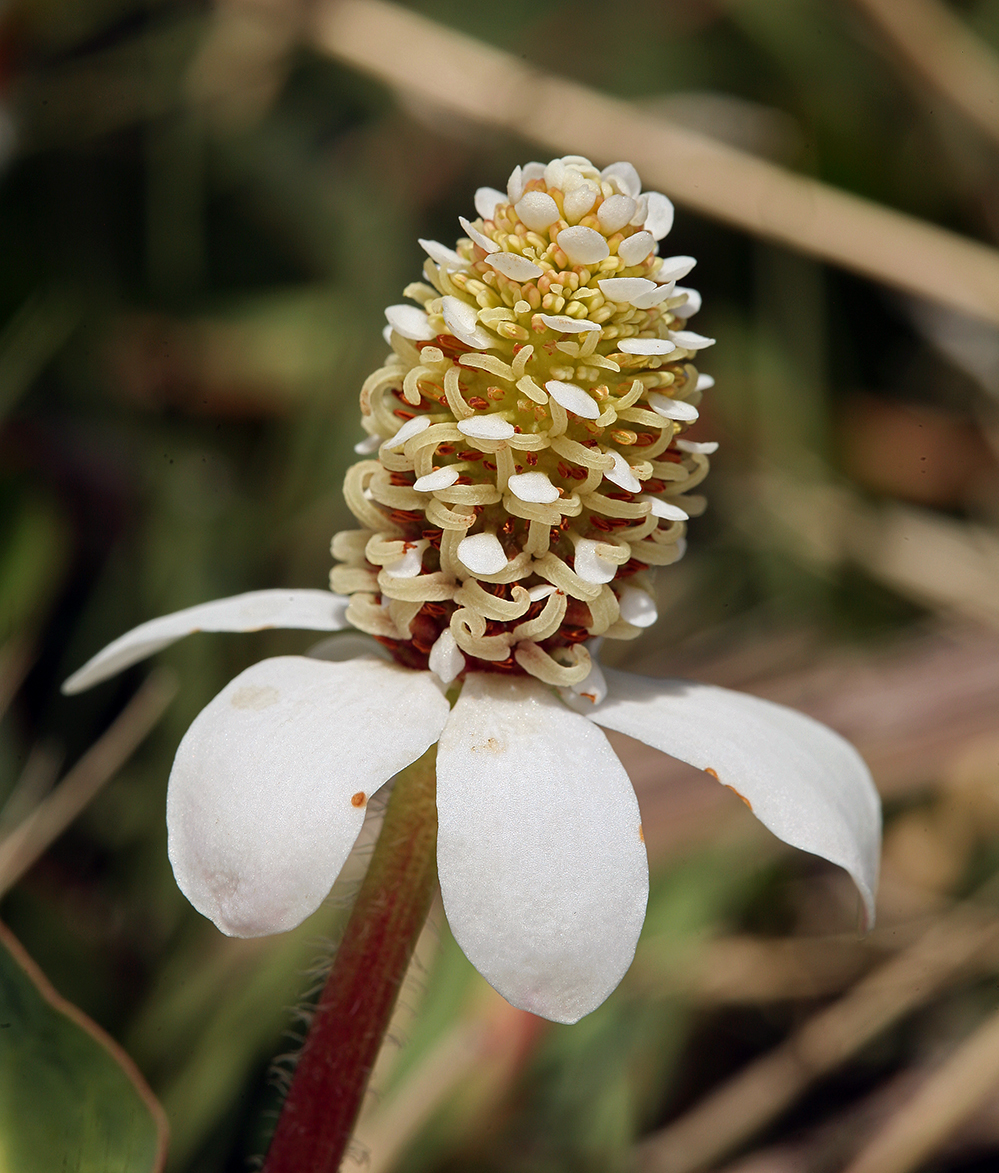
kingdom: Plantae
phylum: Tracheophyta
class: Magnoliopsida
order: Piperales
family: Saururaceae
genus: Anemopsis
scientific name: Anemopsis californica
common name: Apache-beads
